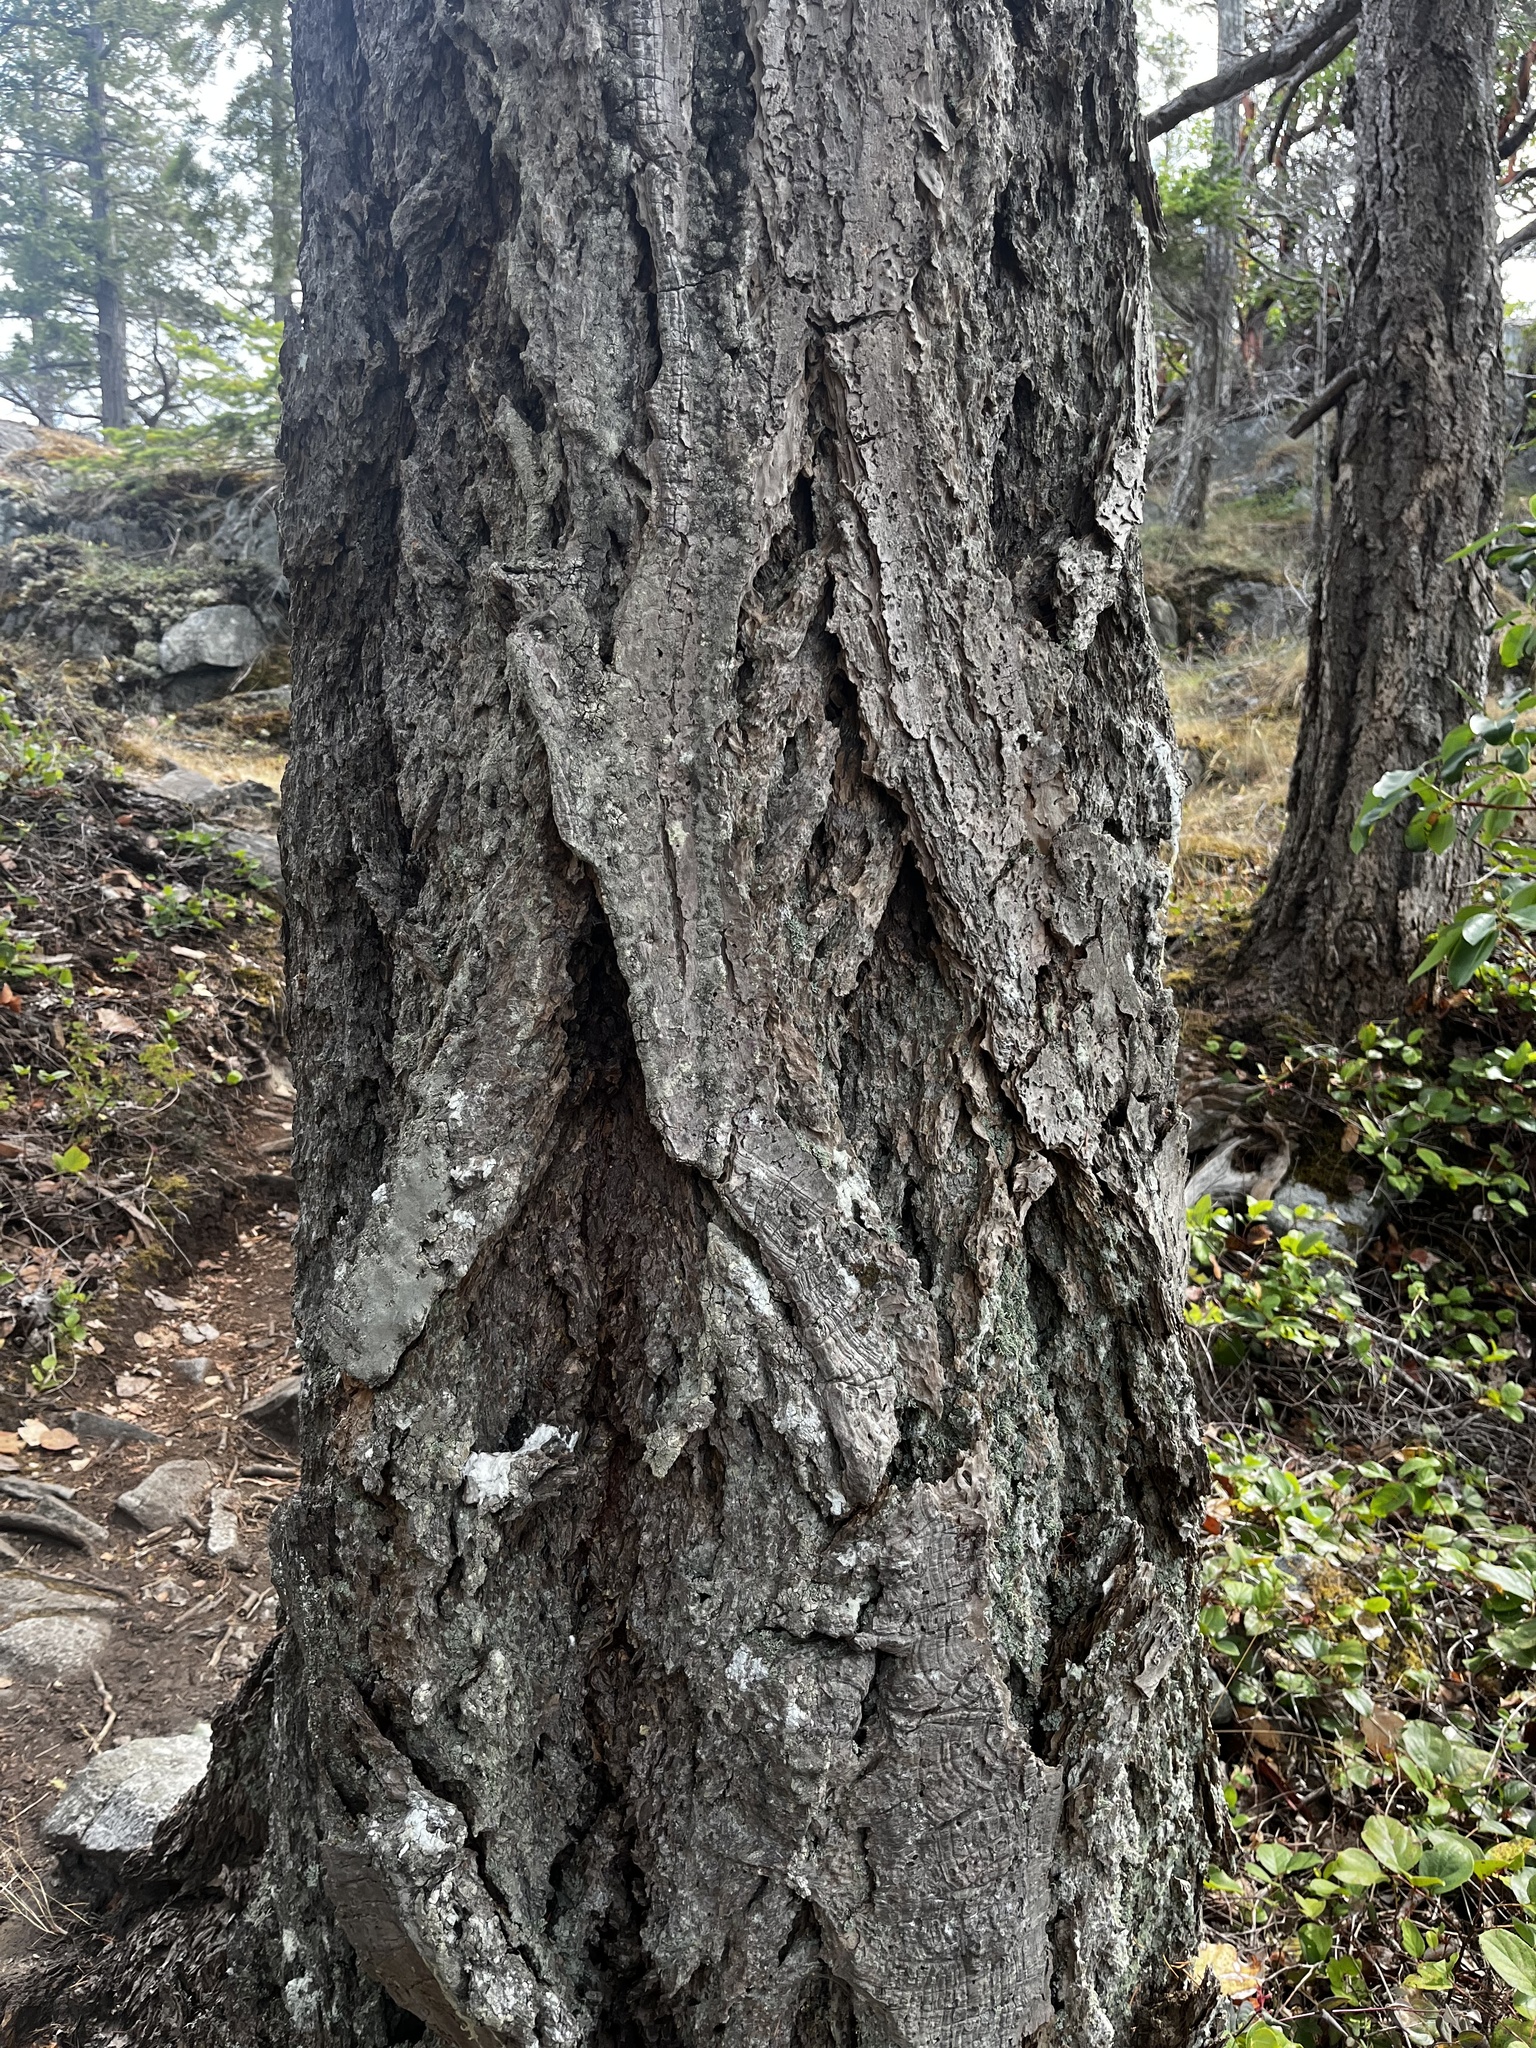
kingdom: Plantae
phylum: Tracheophyta
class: Pinopsida
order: Pinales
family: Pinaceae
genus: Pseudotsuga
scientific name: Pseudotsuga menziesii
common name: Douglas fir
